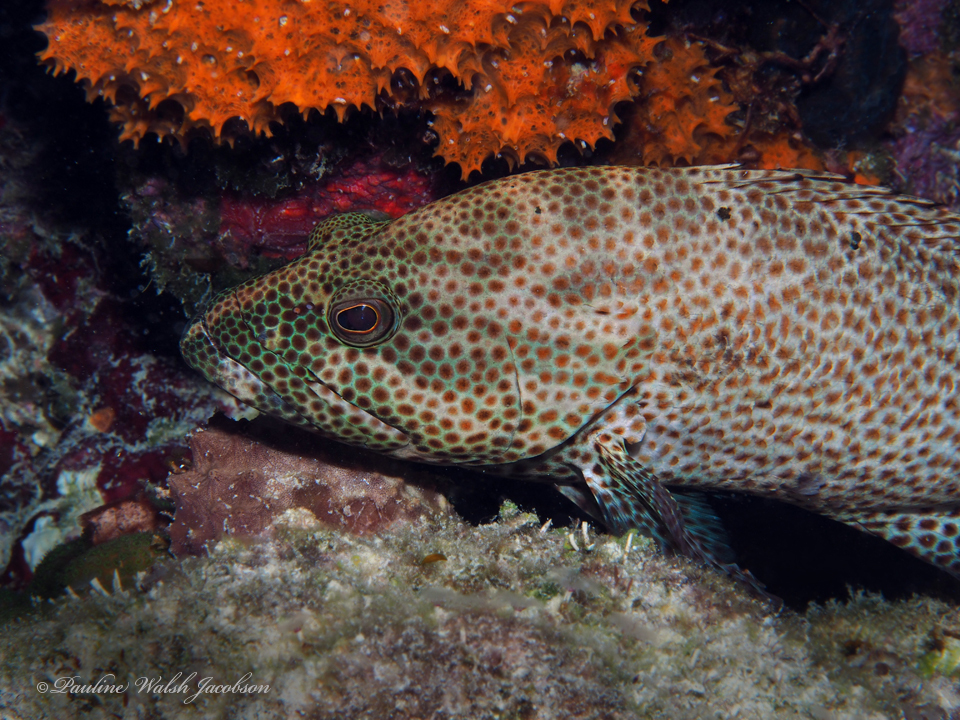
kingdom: Animalia
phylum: Chordata
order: Perciformes
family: Serranidae
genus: Cephalopholis
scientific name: Cephalopholis cruentata
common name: Graysby
